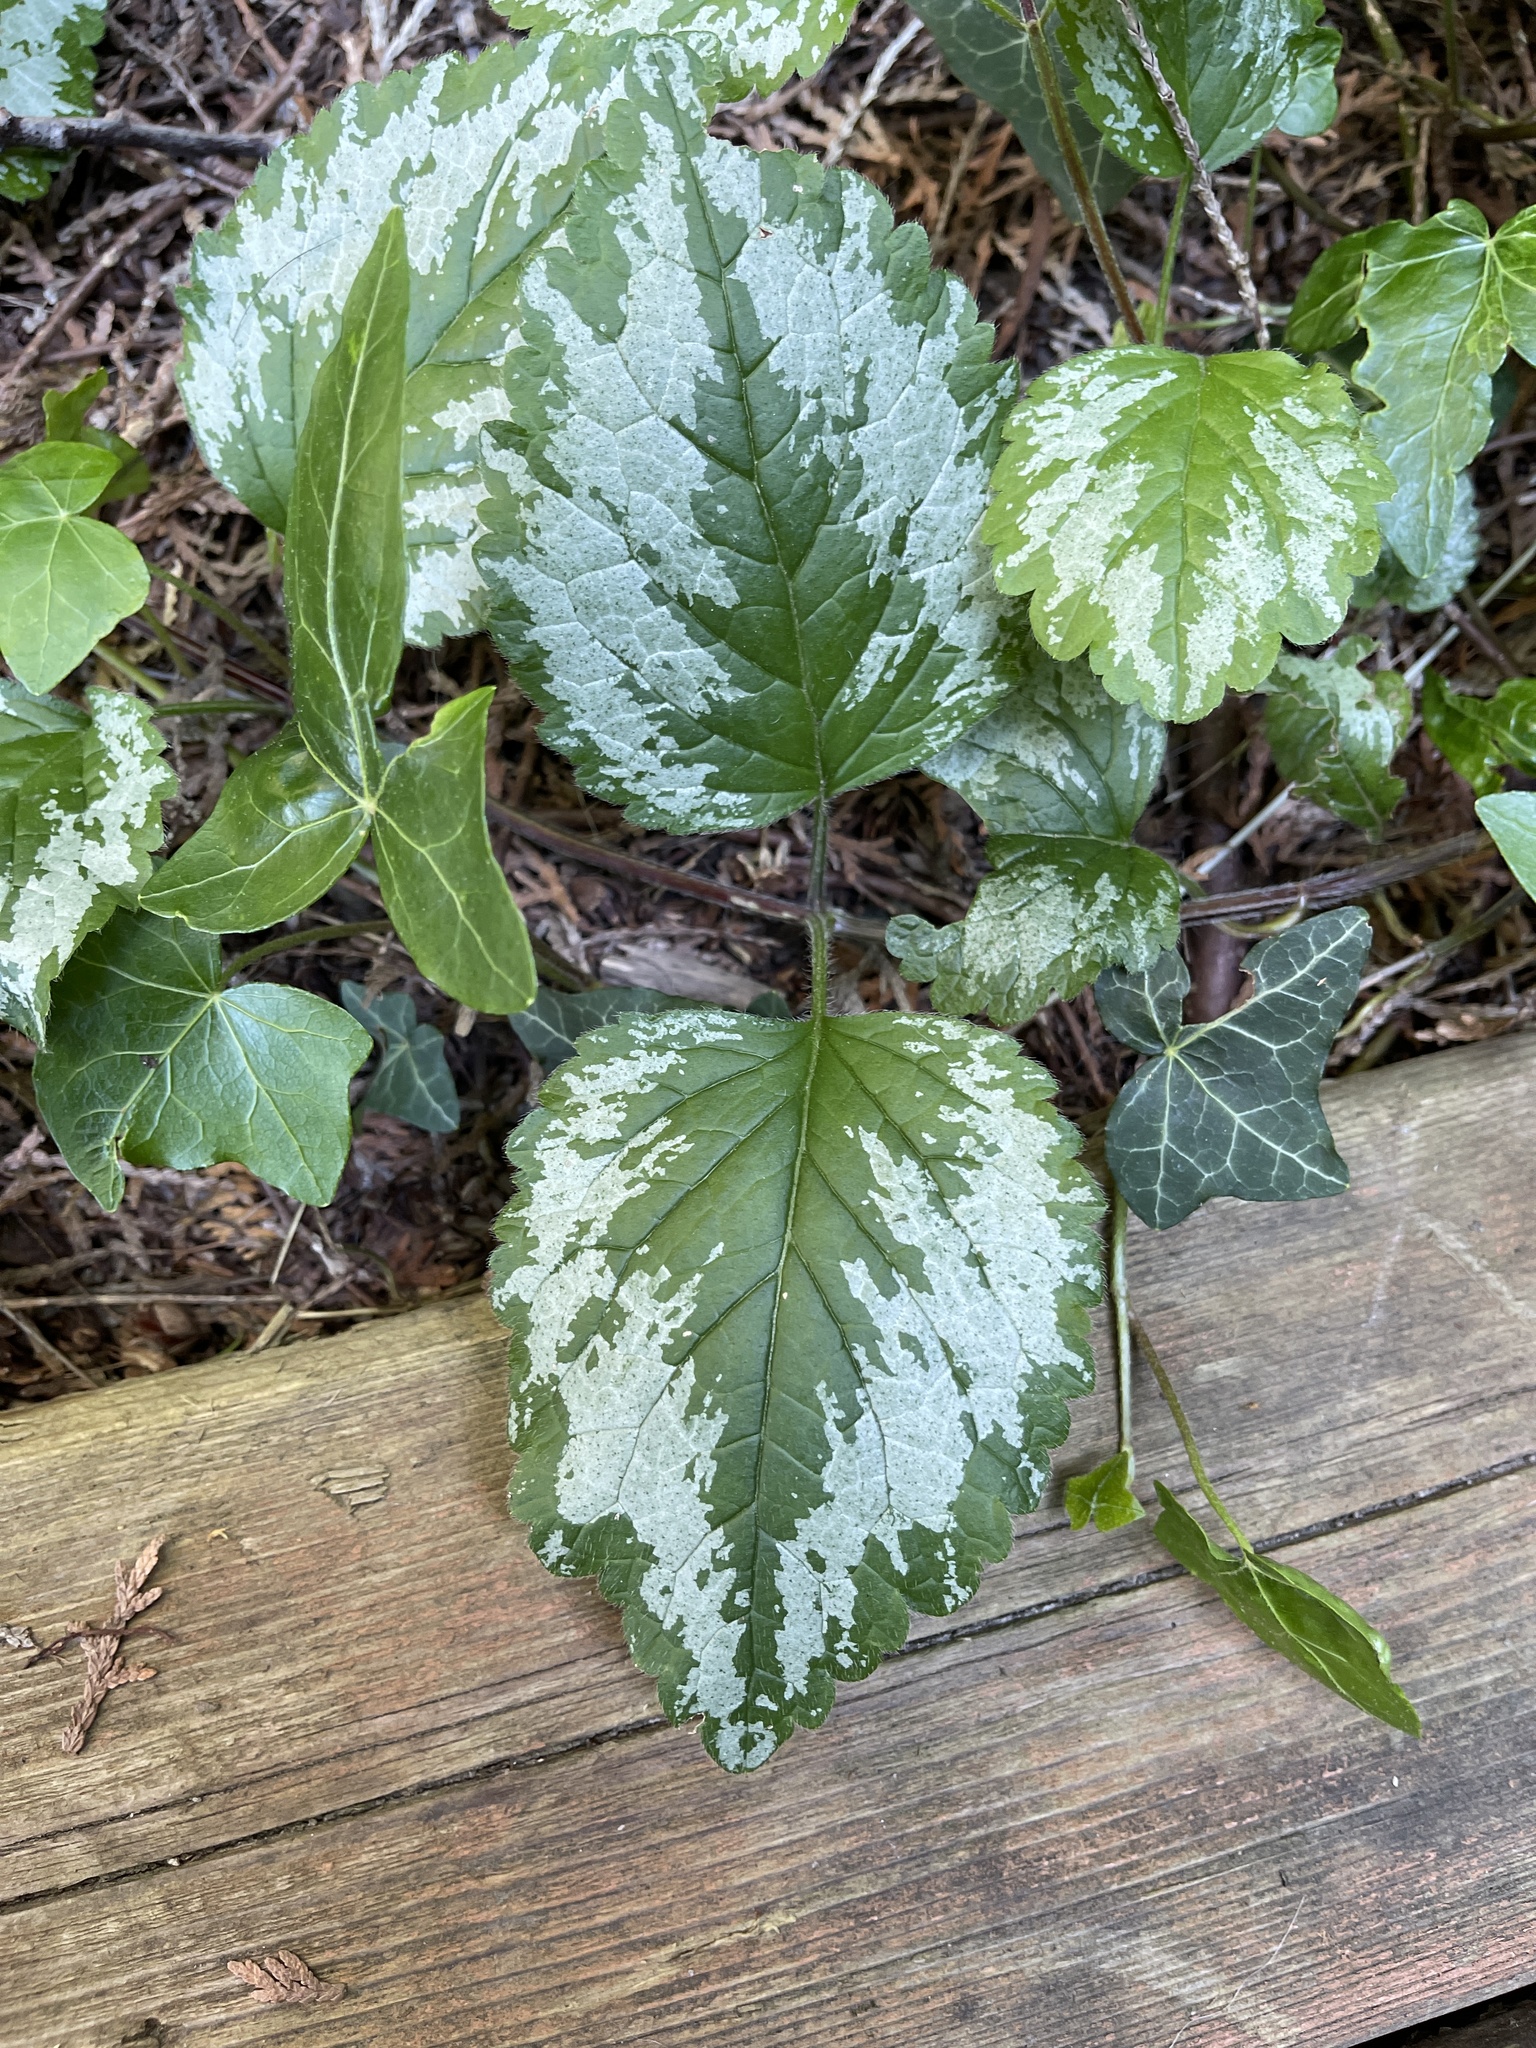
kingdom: Plantae
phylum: Tracheophyta
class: Magnoliopsida
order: Lamiales
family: Lamiaceae
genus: Lamium
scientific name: Lamium galeobdolon
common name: Yellow archangel
